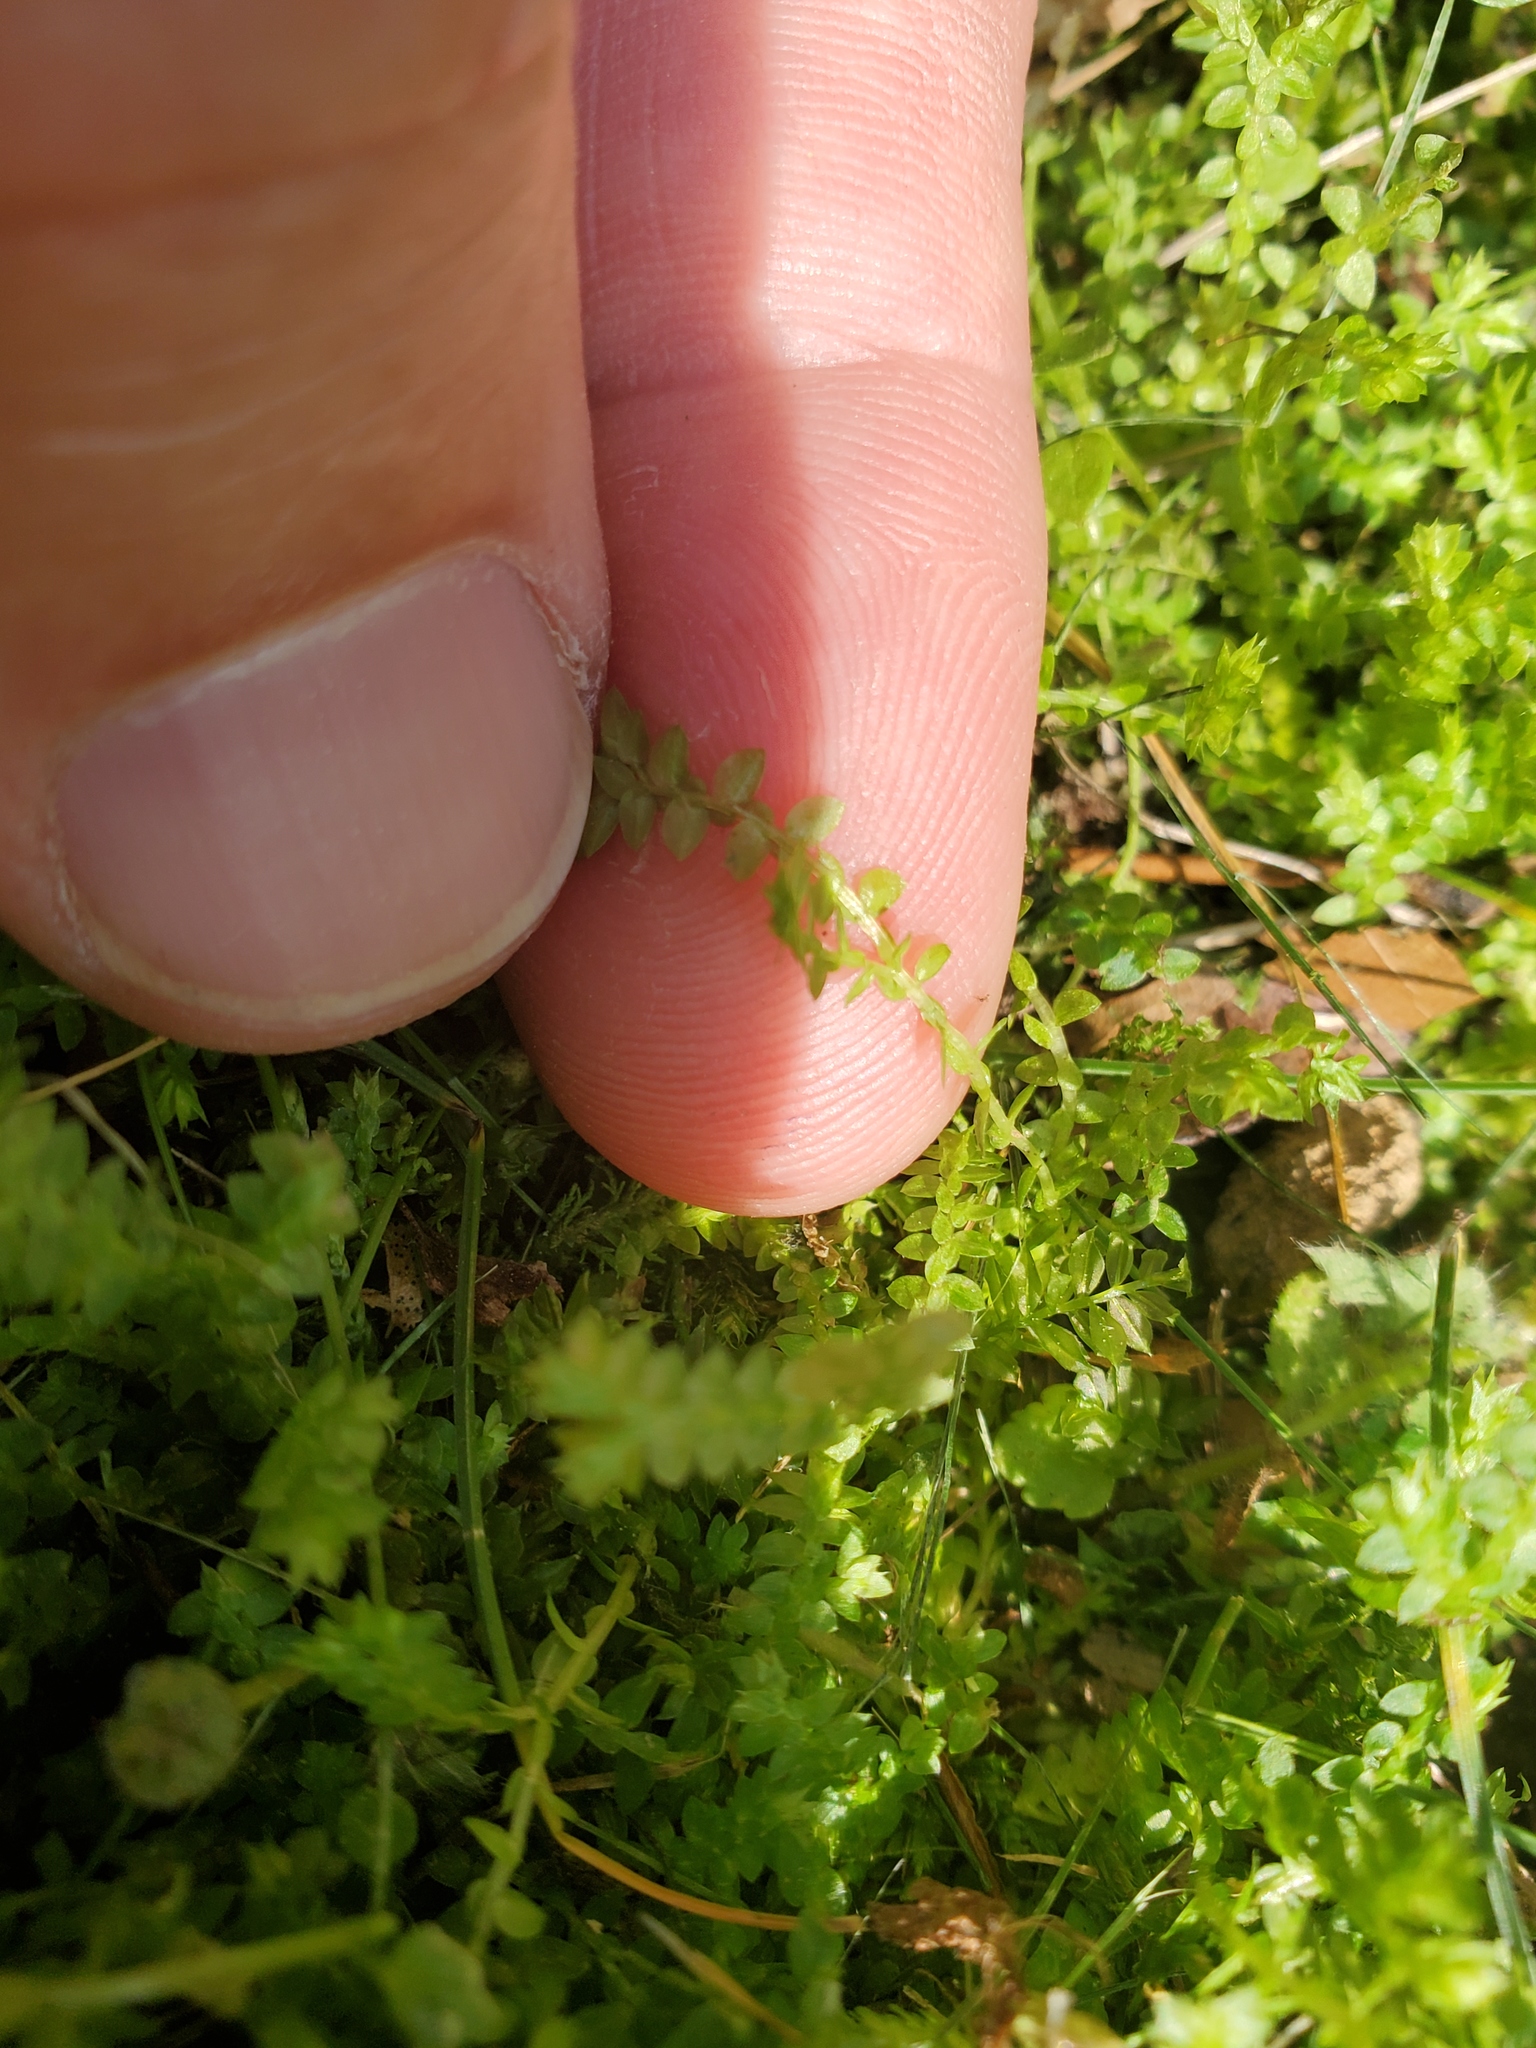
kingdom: Plantae
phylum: Tracheophyta
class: Lycopodiopsida
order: Selaginellales
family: Selaginellaceae
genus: Selaginella
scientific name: Selaginella apoda
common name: Creeping spikemoss
